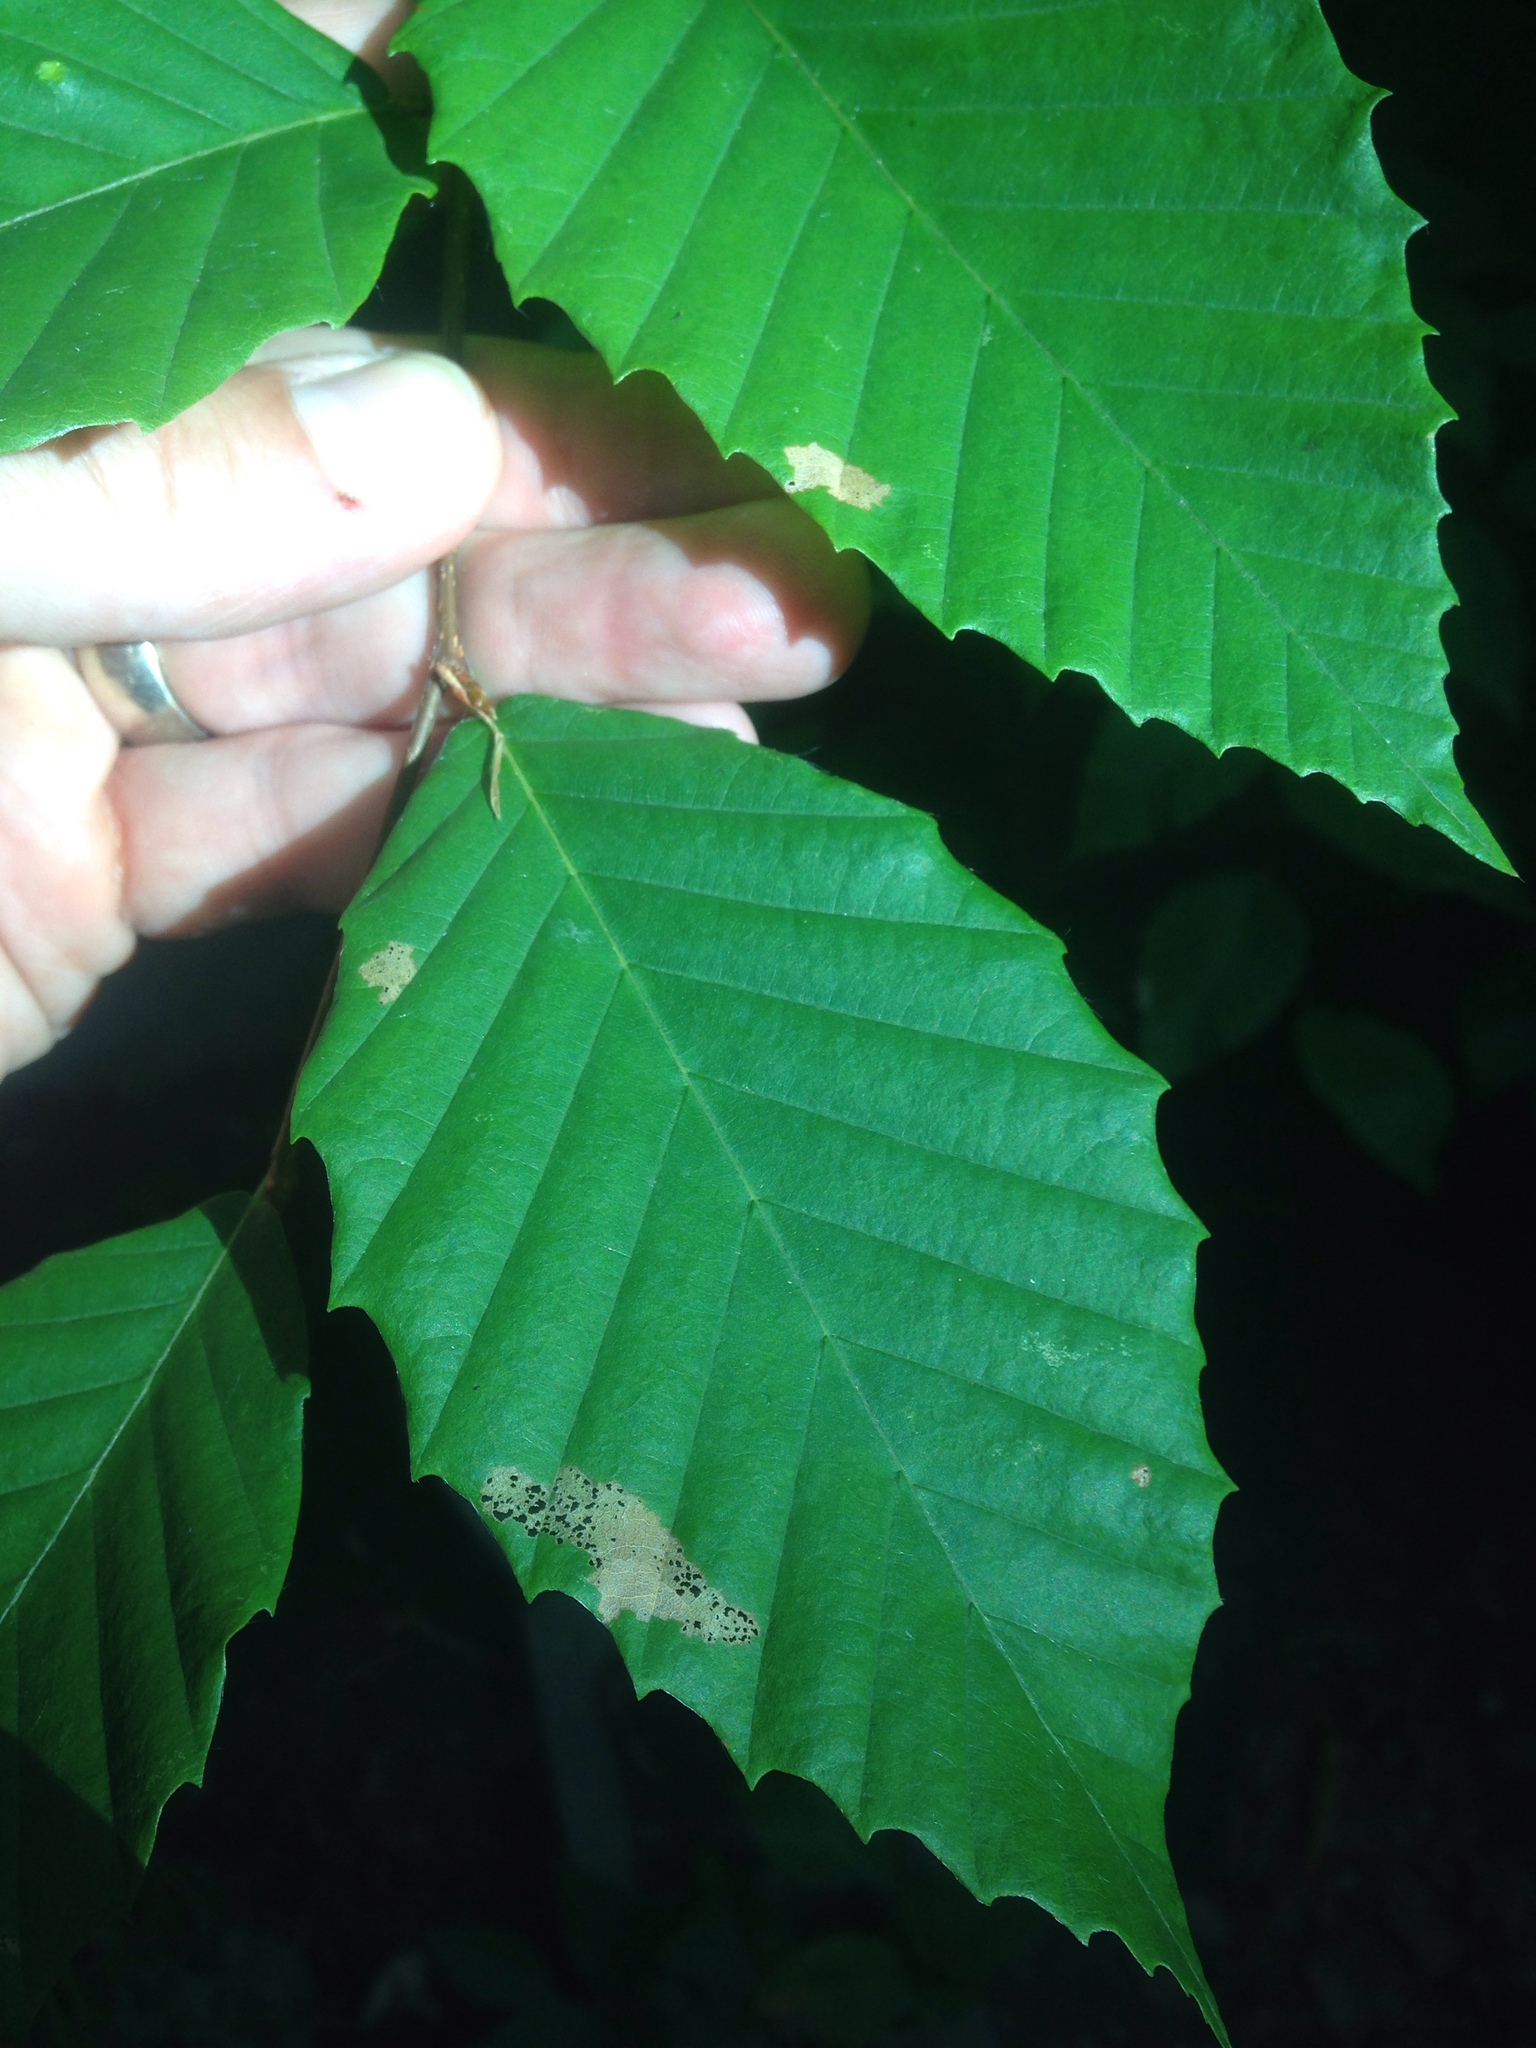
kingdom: Plantae
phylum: Tracheophyta
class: Magnoliopsida
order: Fagales
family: Fagaceae
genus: Fagus
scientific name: Fagus grandifolia
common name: American beech
